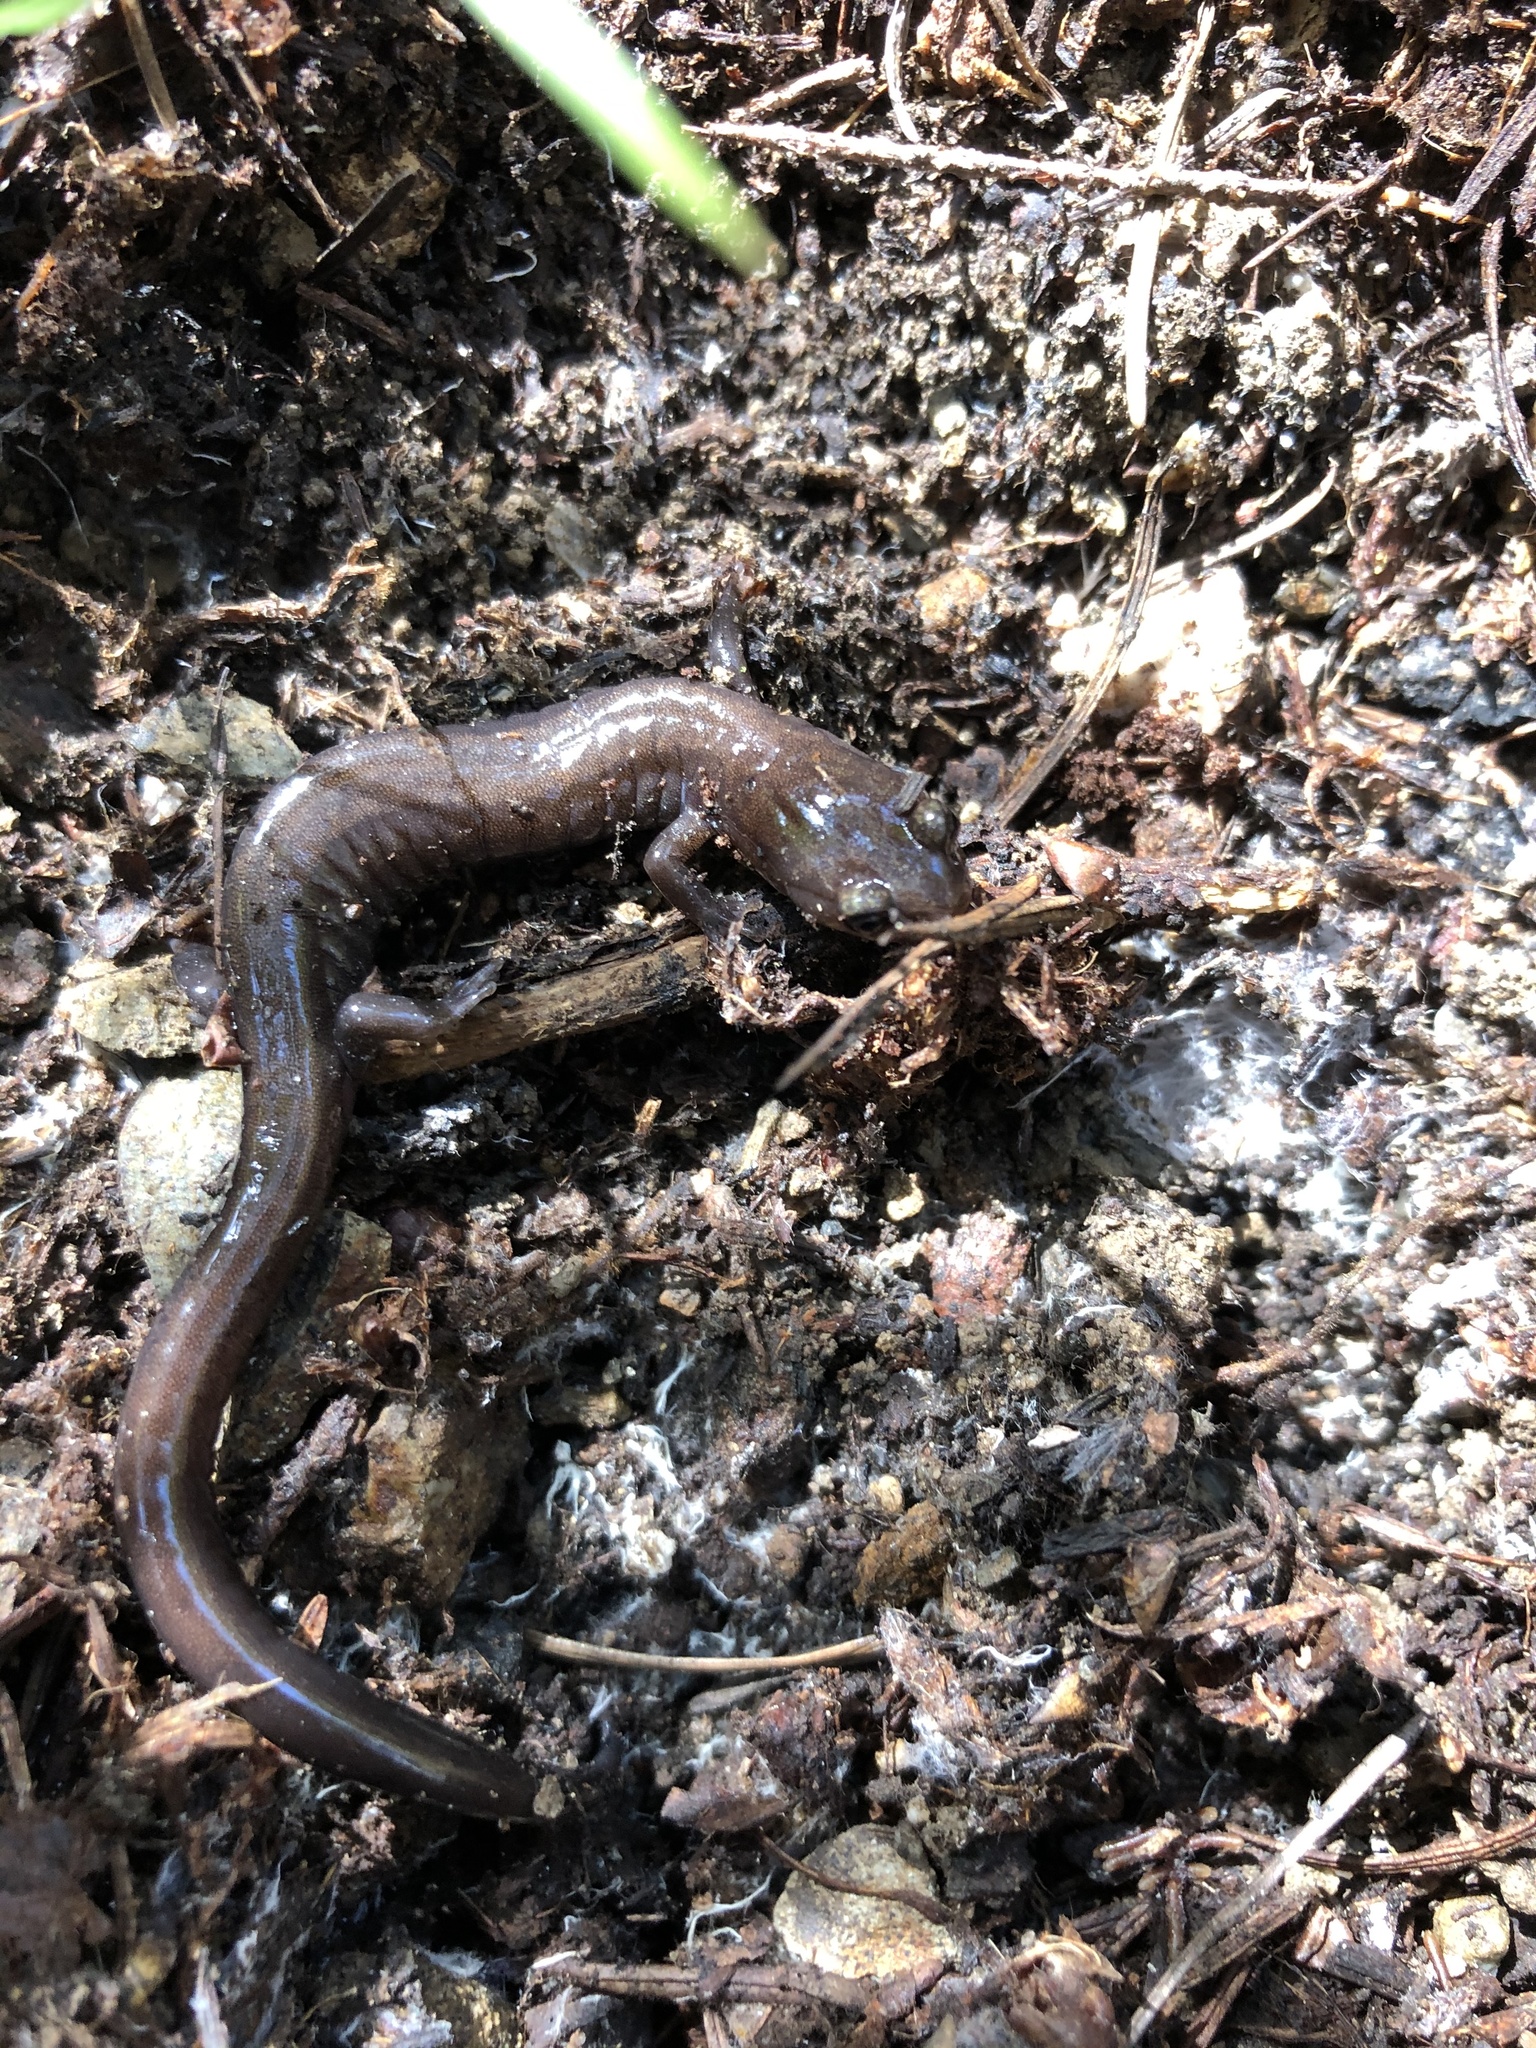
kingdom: Animalia
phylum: Chordata
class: Amphibia
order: Caudata
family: Plethodontidae
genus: Plethodon
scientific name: Plethodon elongatus
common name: Del norte salamander
